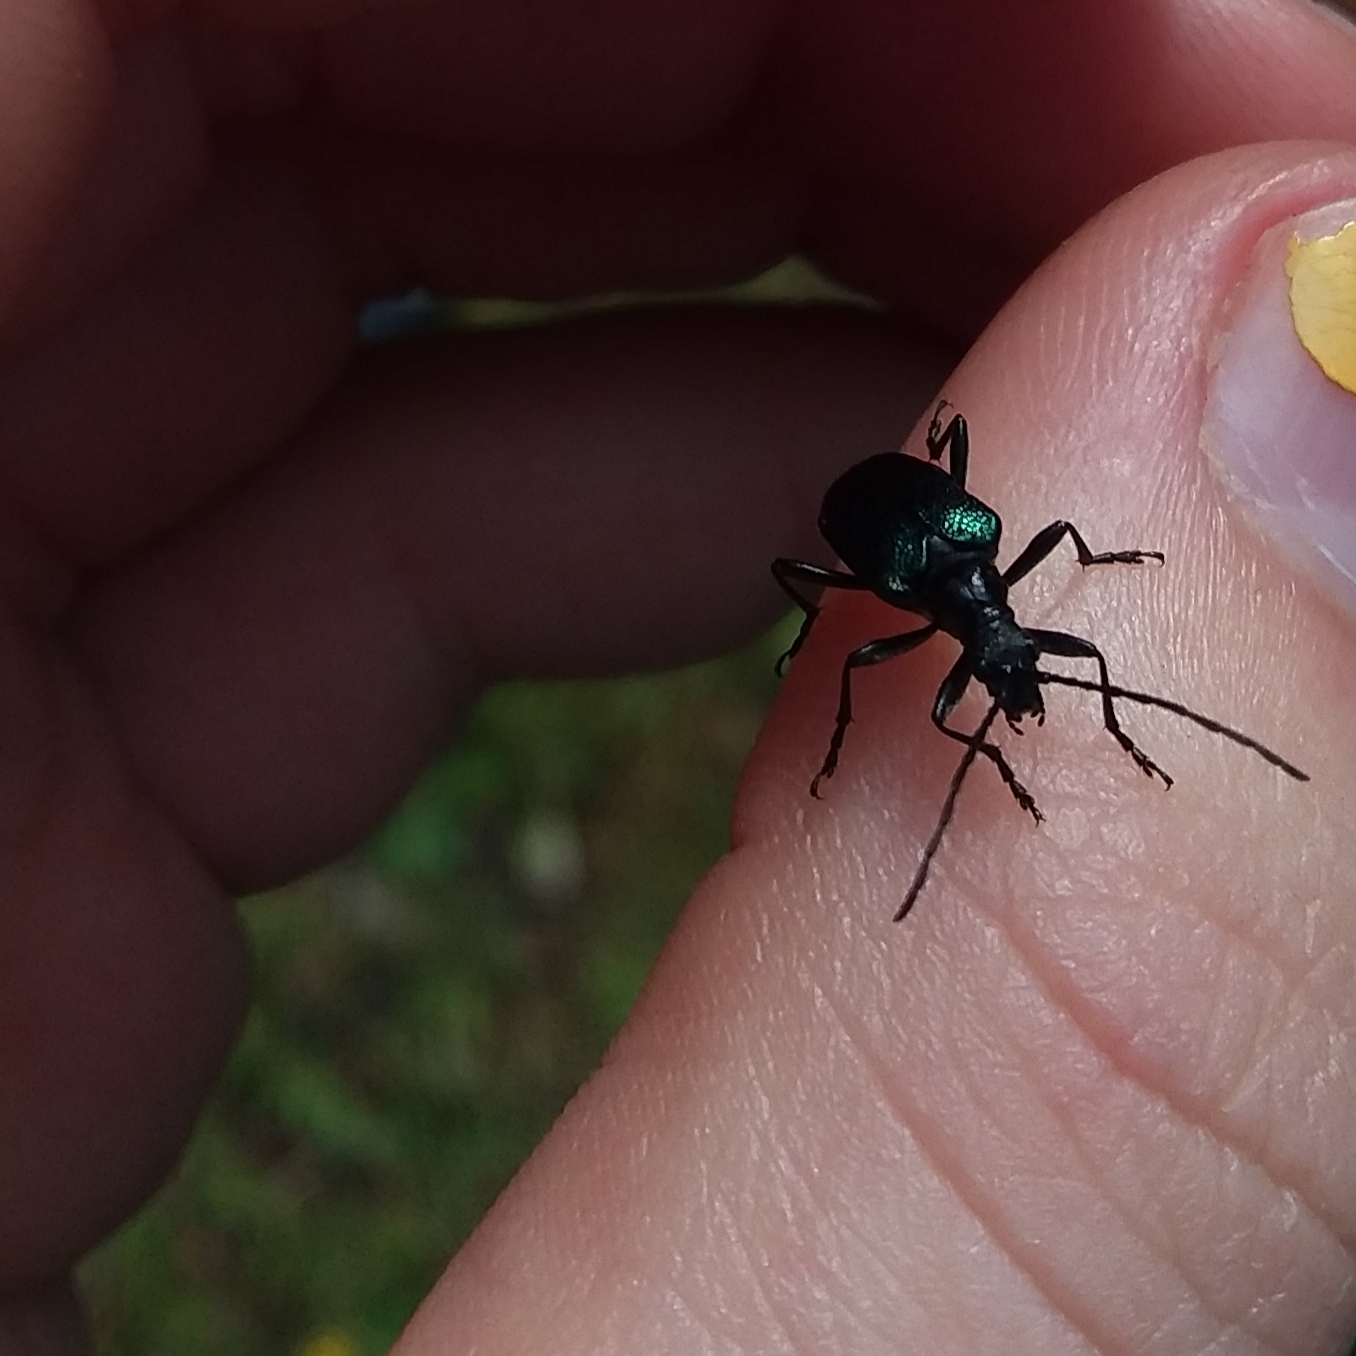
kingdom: Animalia
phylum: Arthropoda
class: Insecta
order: Coleoptera
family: Cerambycidae
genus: Gaurotes
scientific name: Gaurotes virginea
